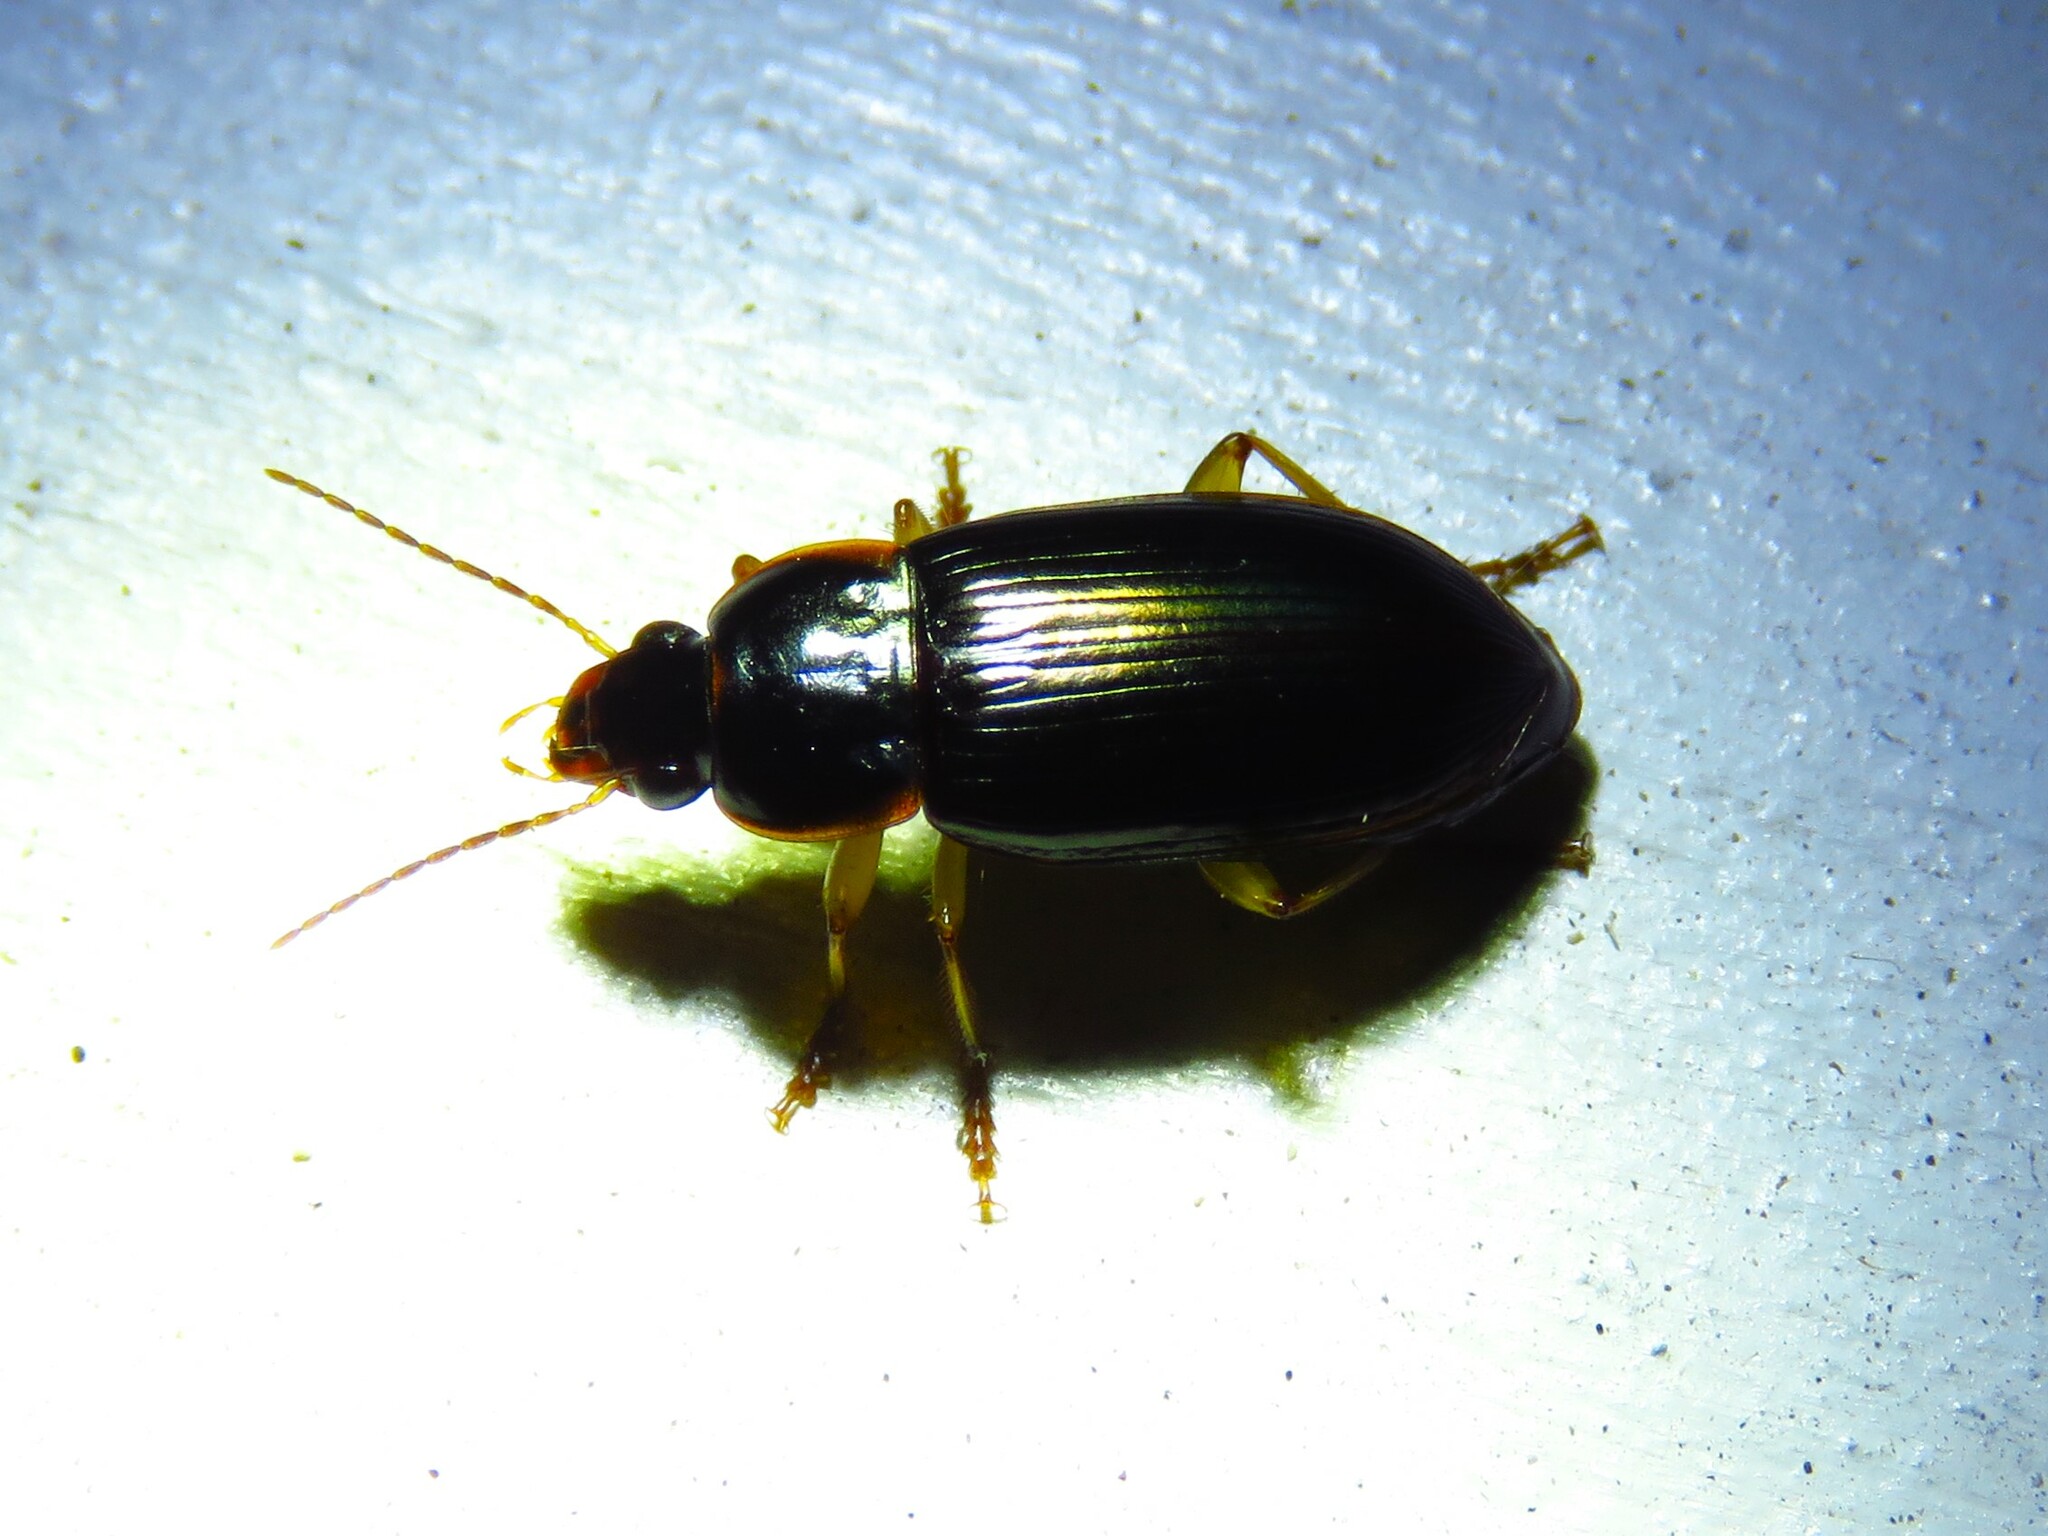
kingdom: Animalia
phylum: Arthropoda
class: Insecta
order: Coleoptera
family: Carabidae
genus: Notiobia
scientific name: Notiobia terminata
